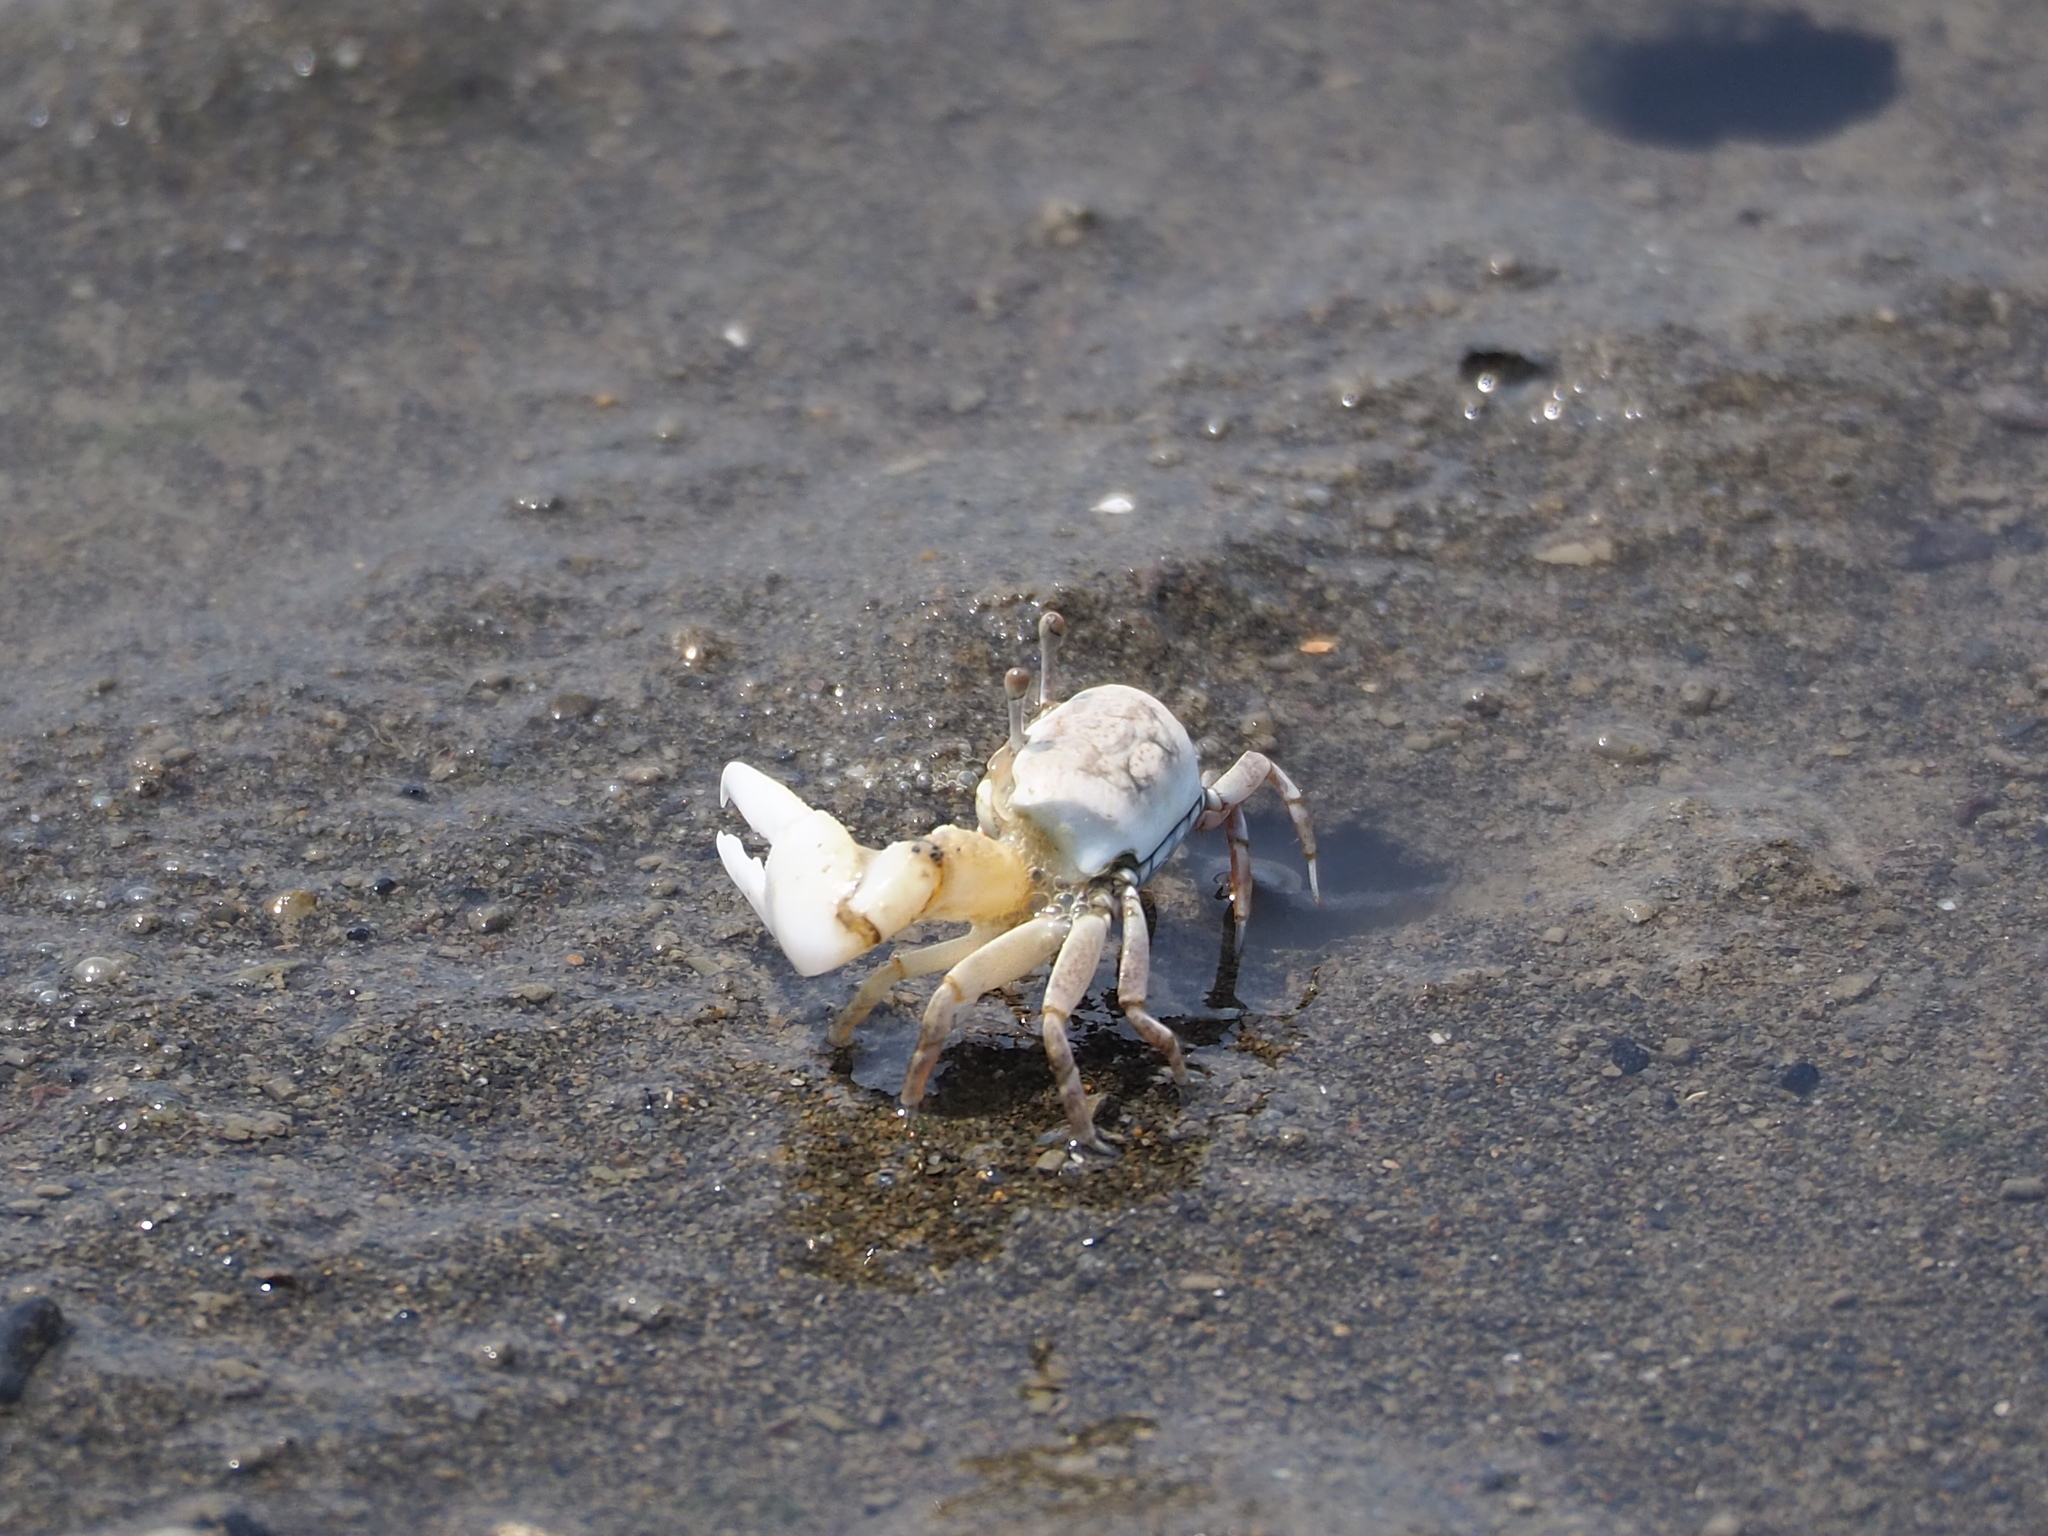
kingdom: Animalia
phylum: Arthropoda
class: Malacostraca
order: Decapoda
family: Ocypodidae
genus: Austruca
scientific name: Austruca lactea
